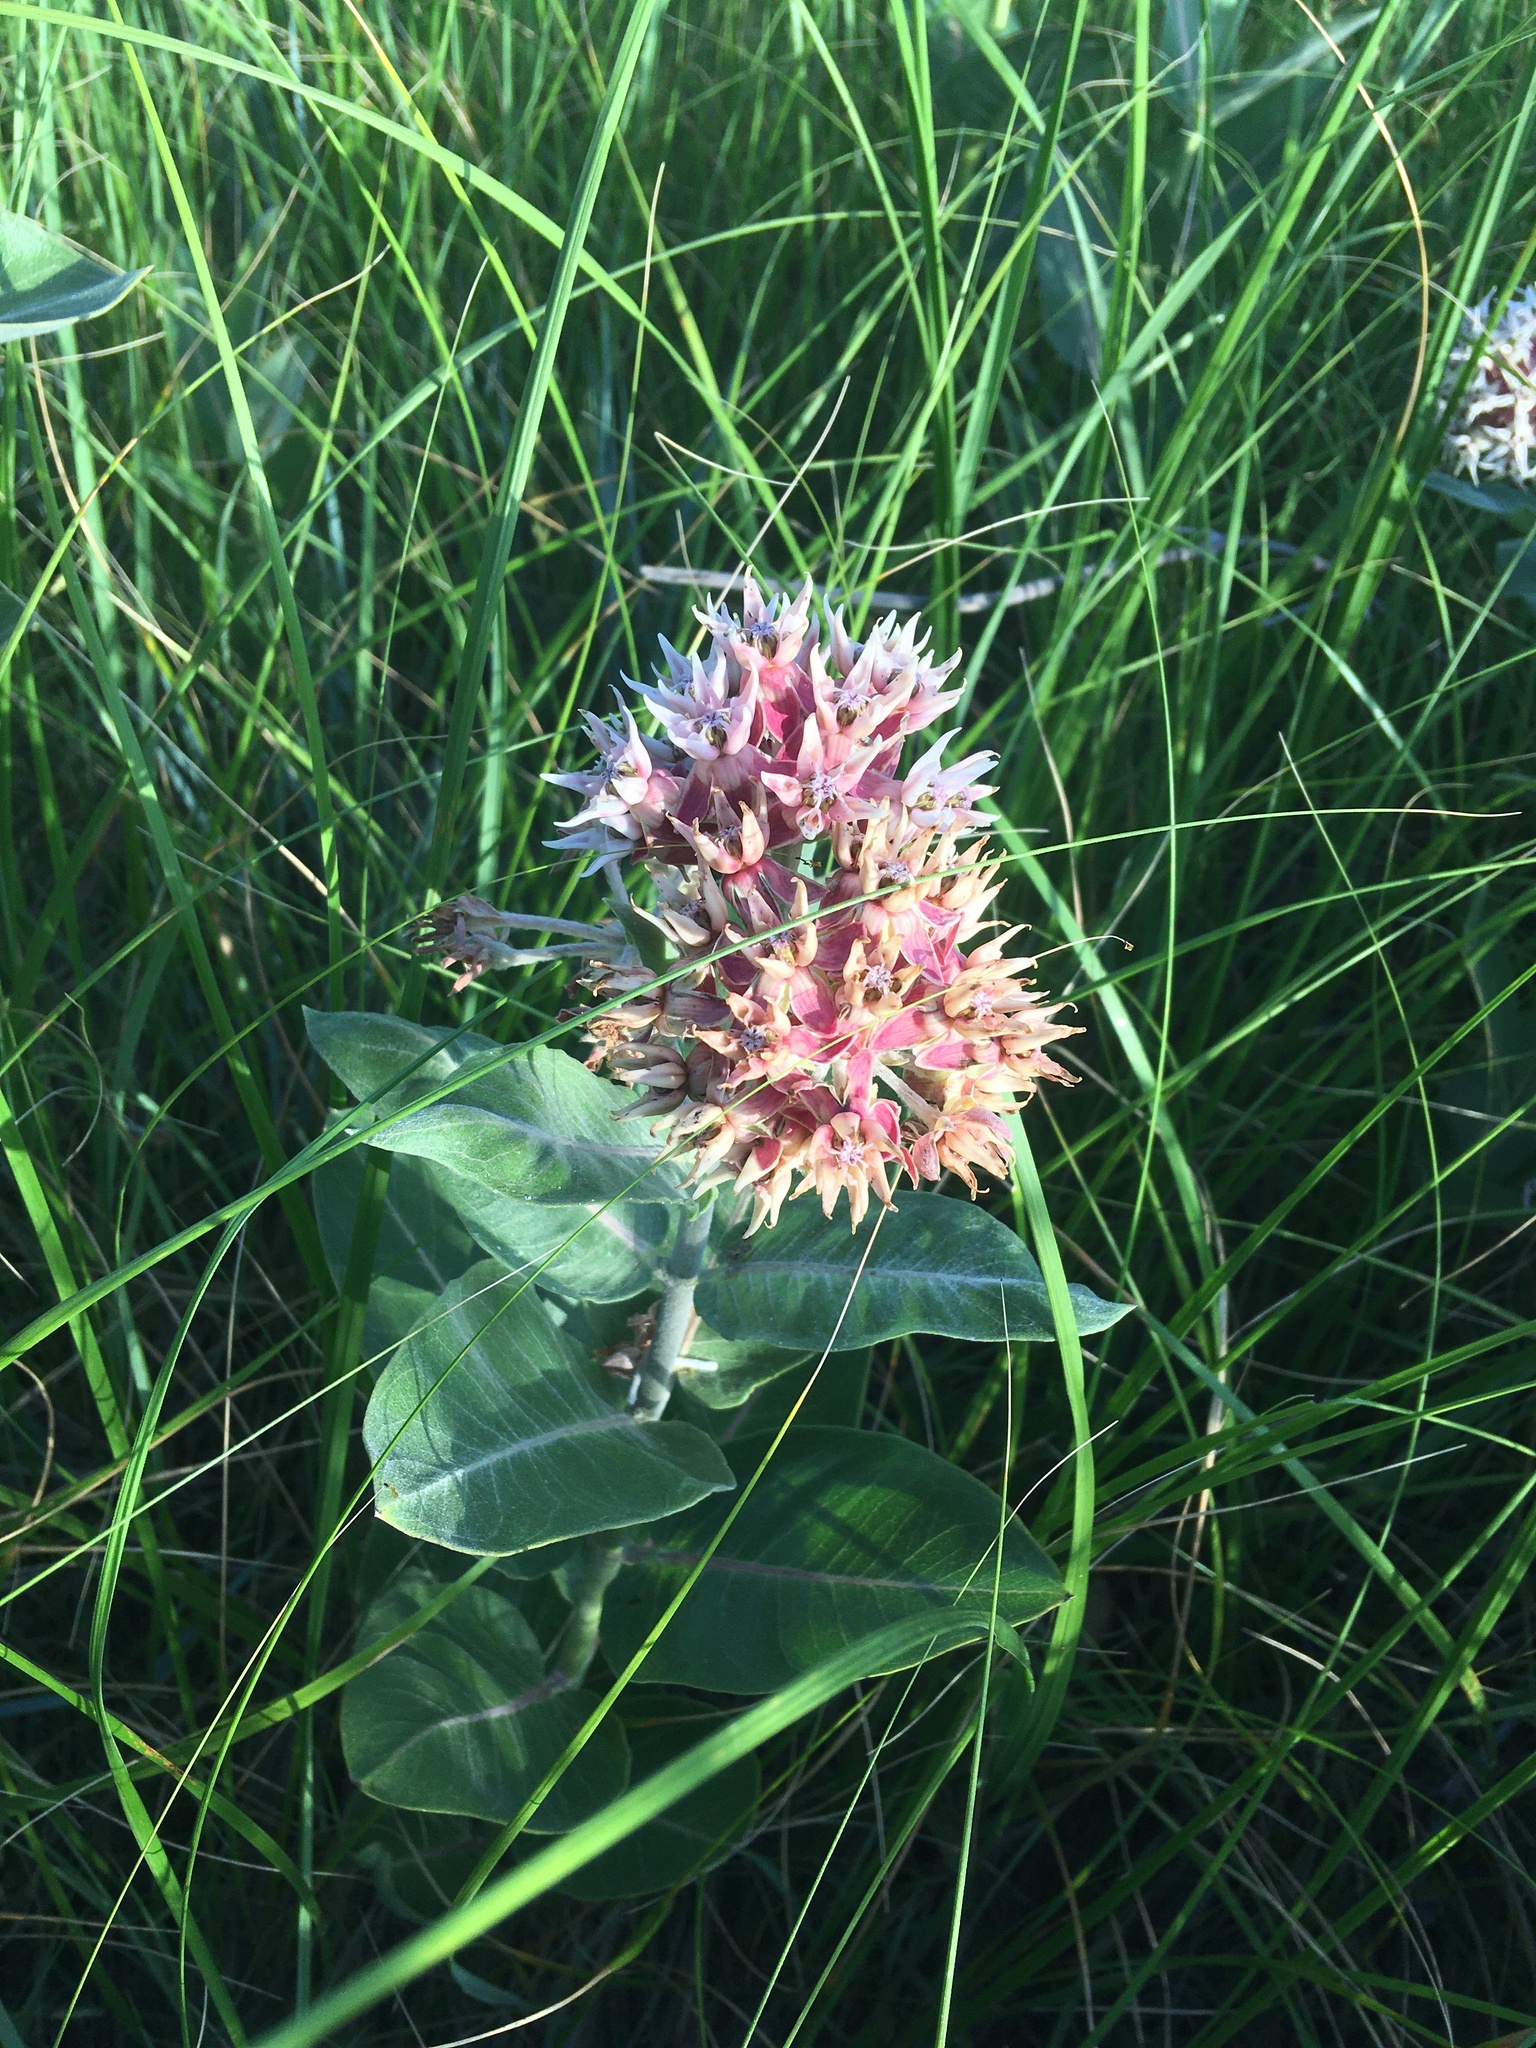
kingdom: Plantae
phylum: Tracheophyta
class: Magnoliopsida
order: Gentianales
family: Apocynaceae
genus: Asclepias
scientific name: Asclepias speciosa
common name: Showy milkweed
